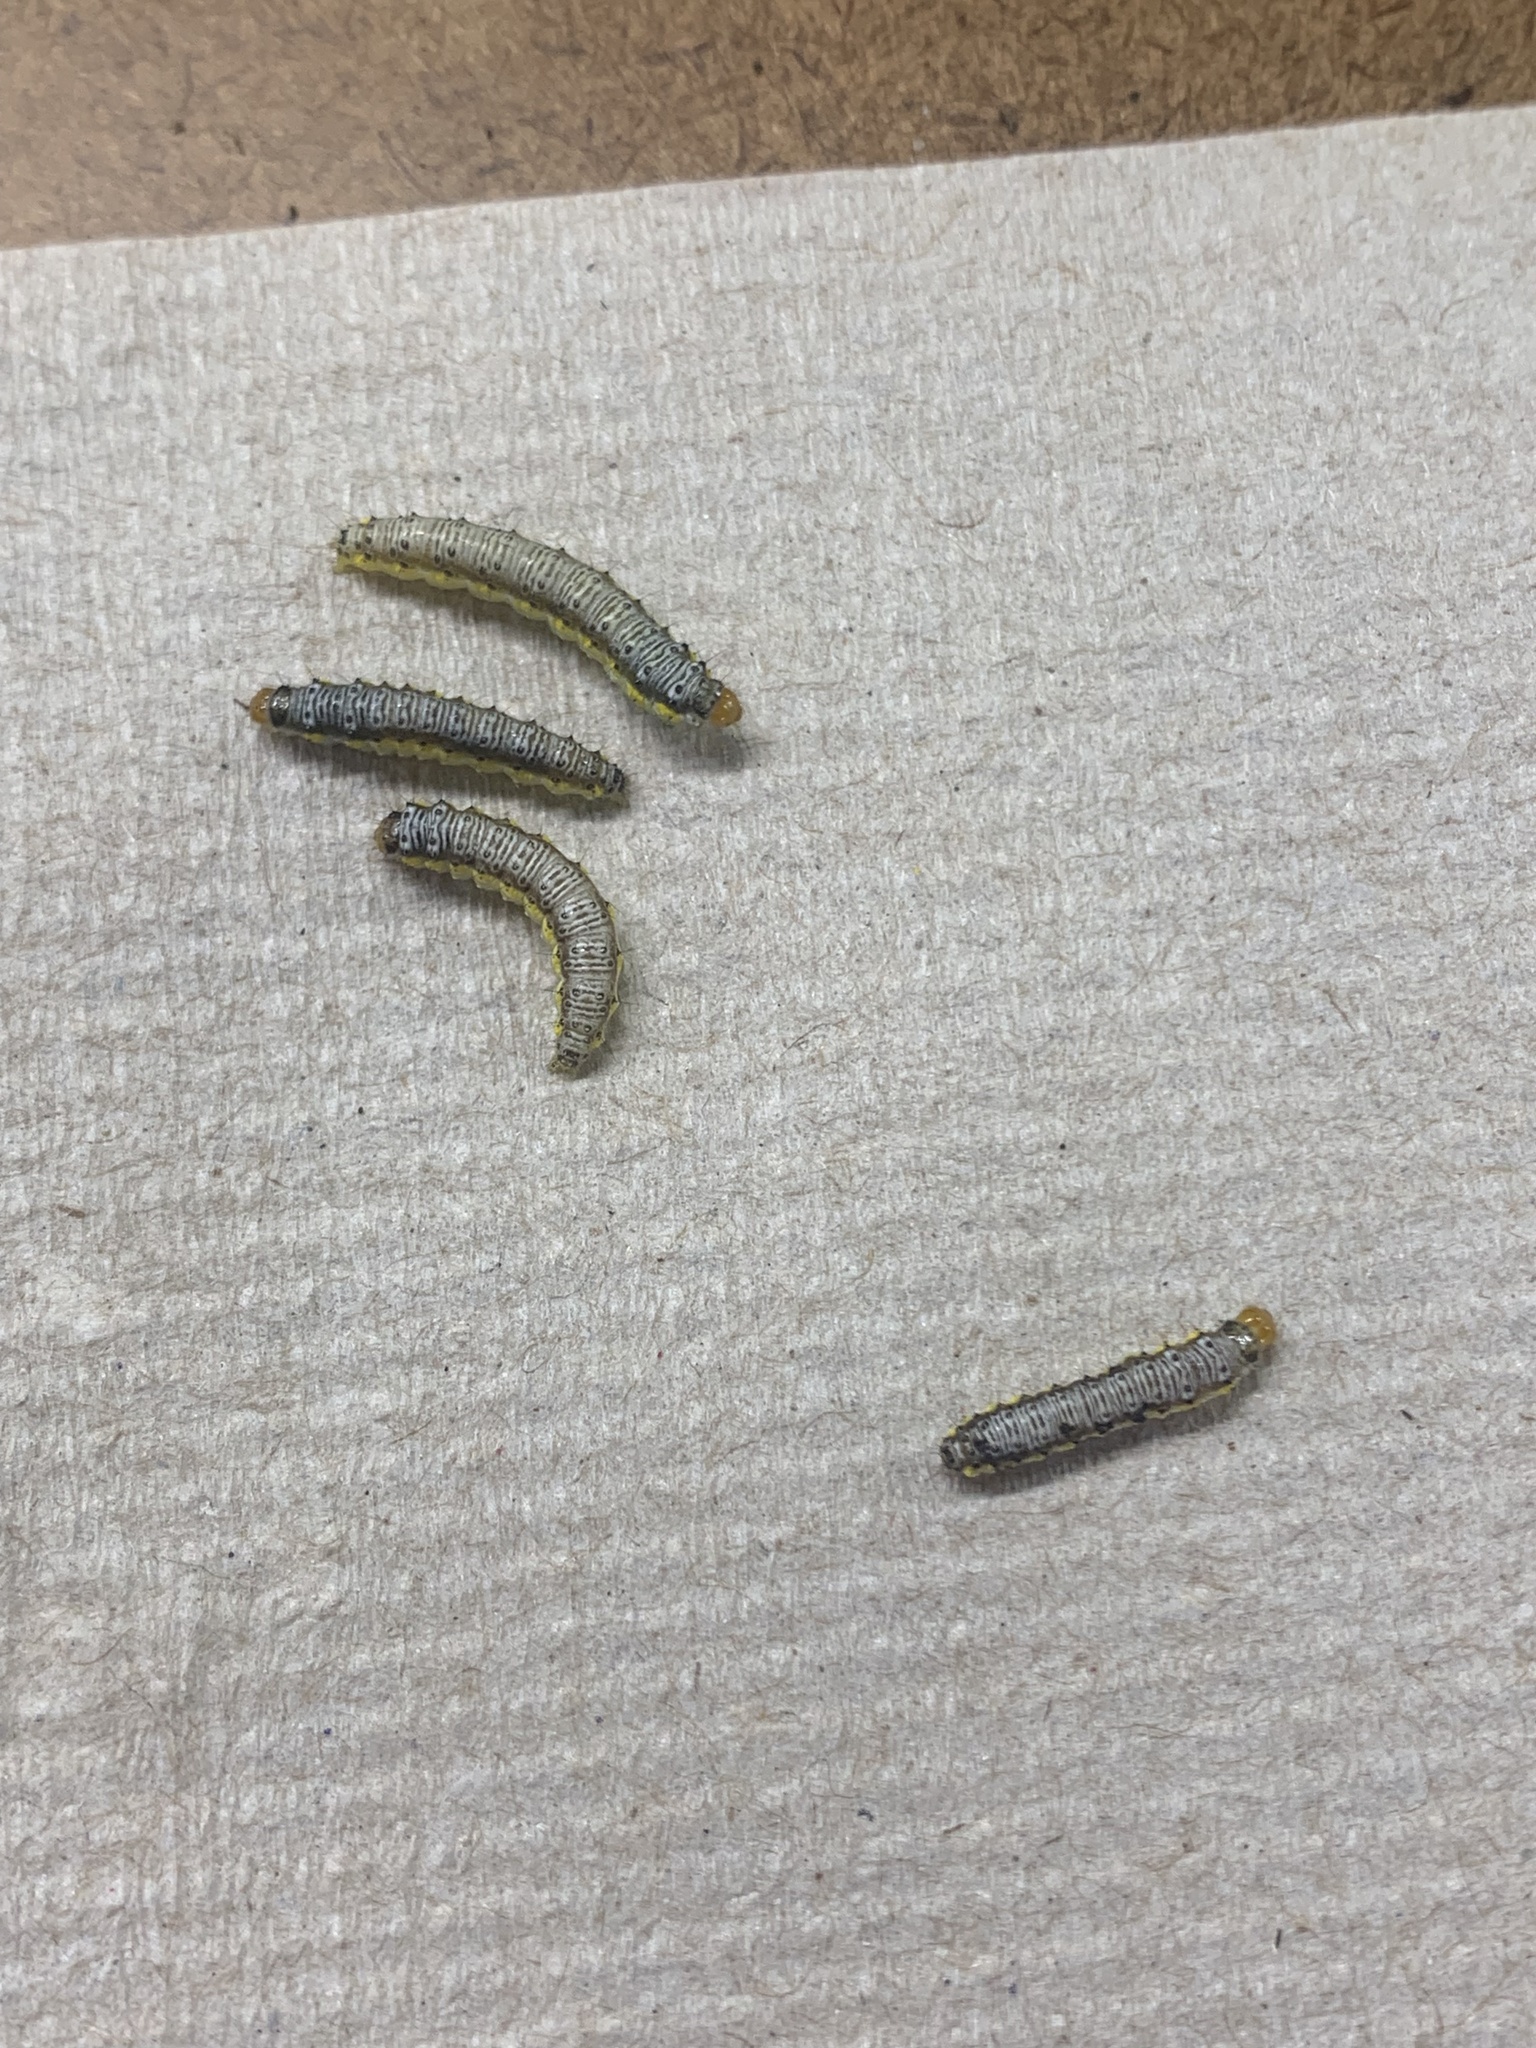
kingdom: Animalia
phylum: Arthropoda
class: Insecta
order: Lepidoptera
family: Crambidae
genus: Evergestis
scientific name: Evergestis rimosalis
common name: Cross-striped cabbageworm moth
